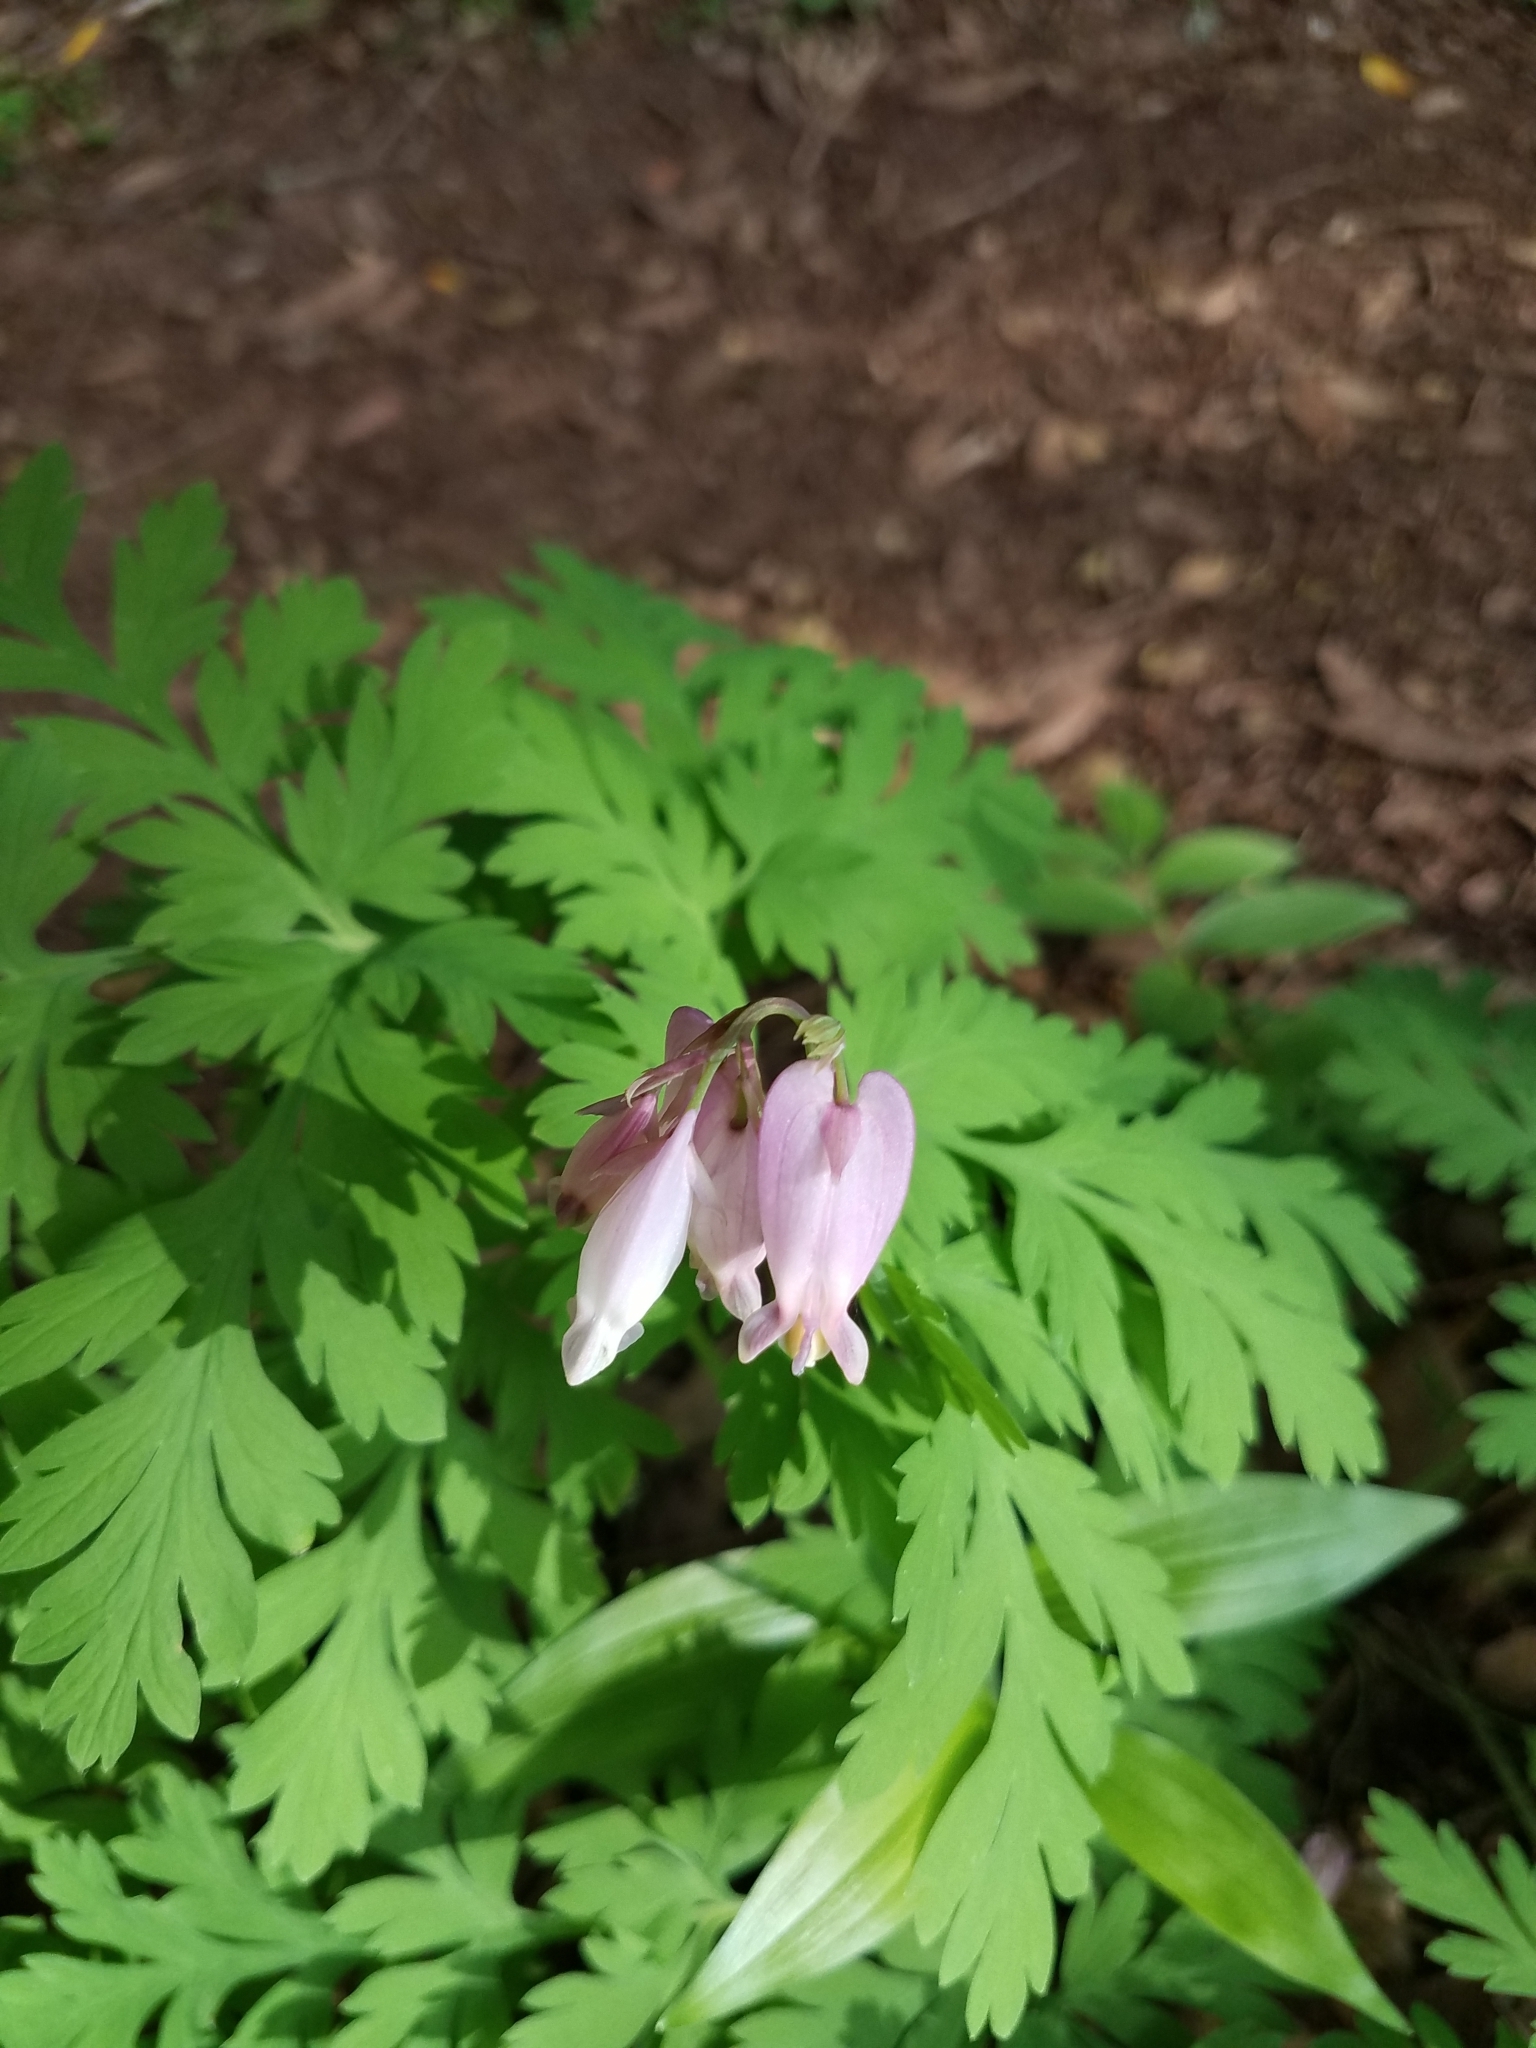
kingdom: Plantae
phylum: Tracheophyta
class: Magnoliopsida
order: Ranunculales
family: Papaveraceae
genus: Dicentra
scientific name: Dicentra formosa
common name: Bleeding-heart
